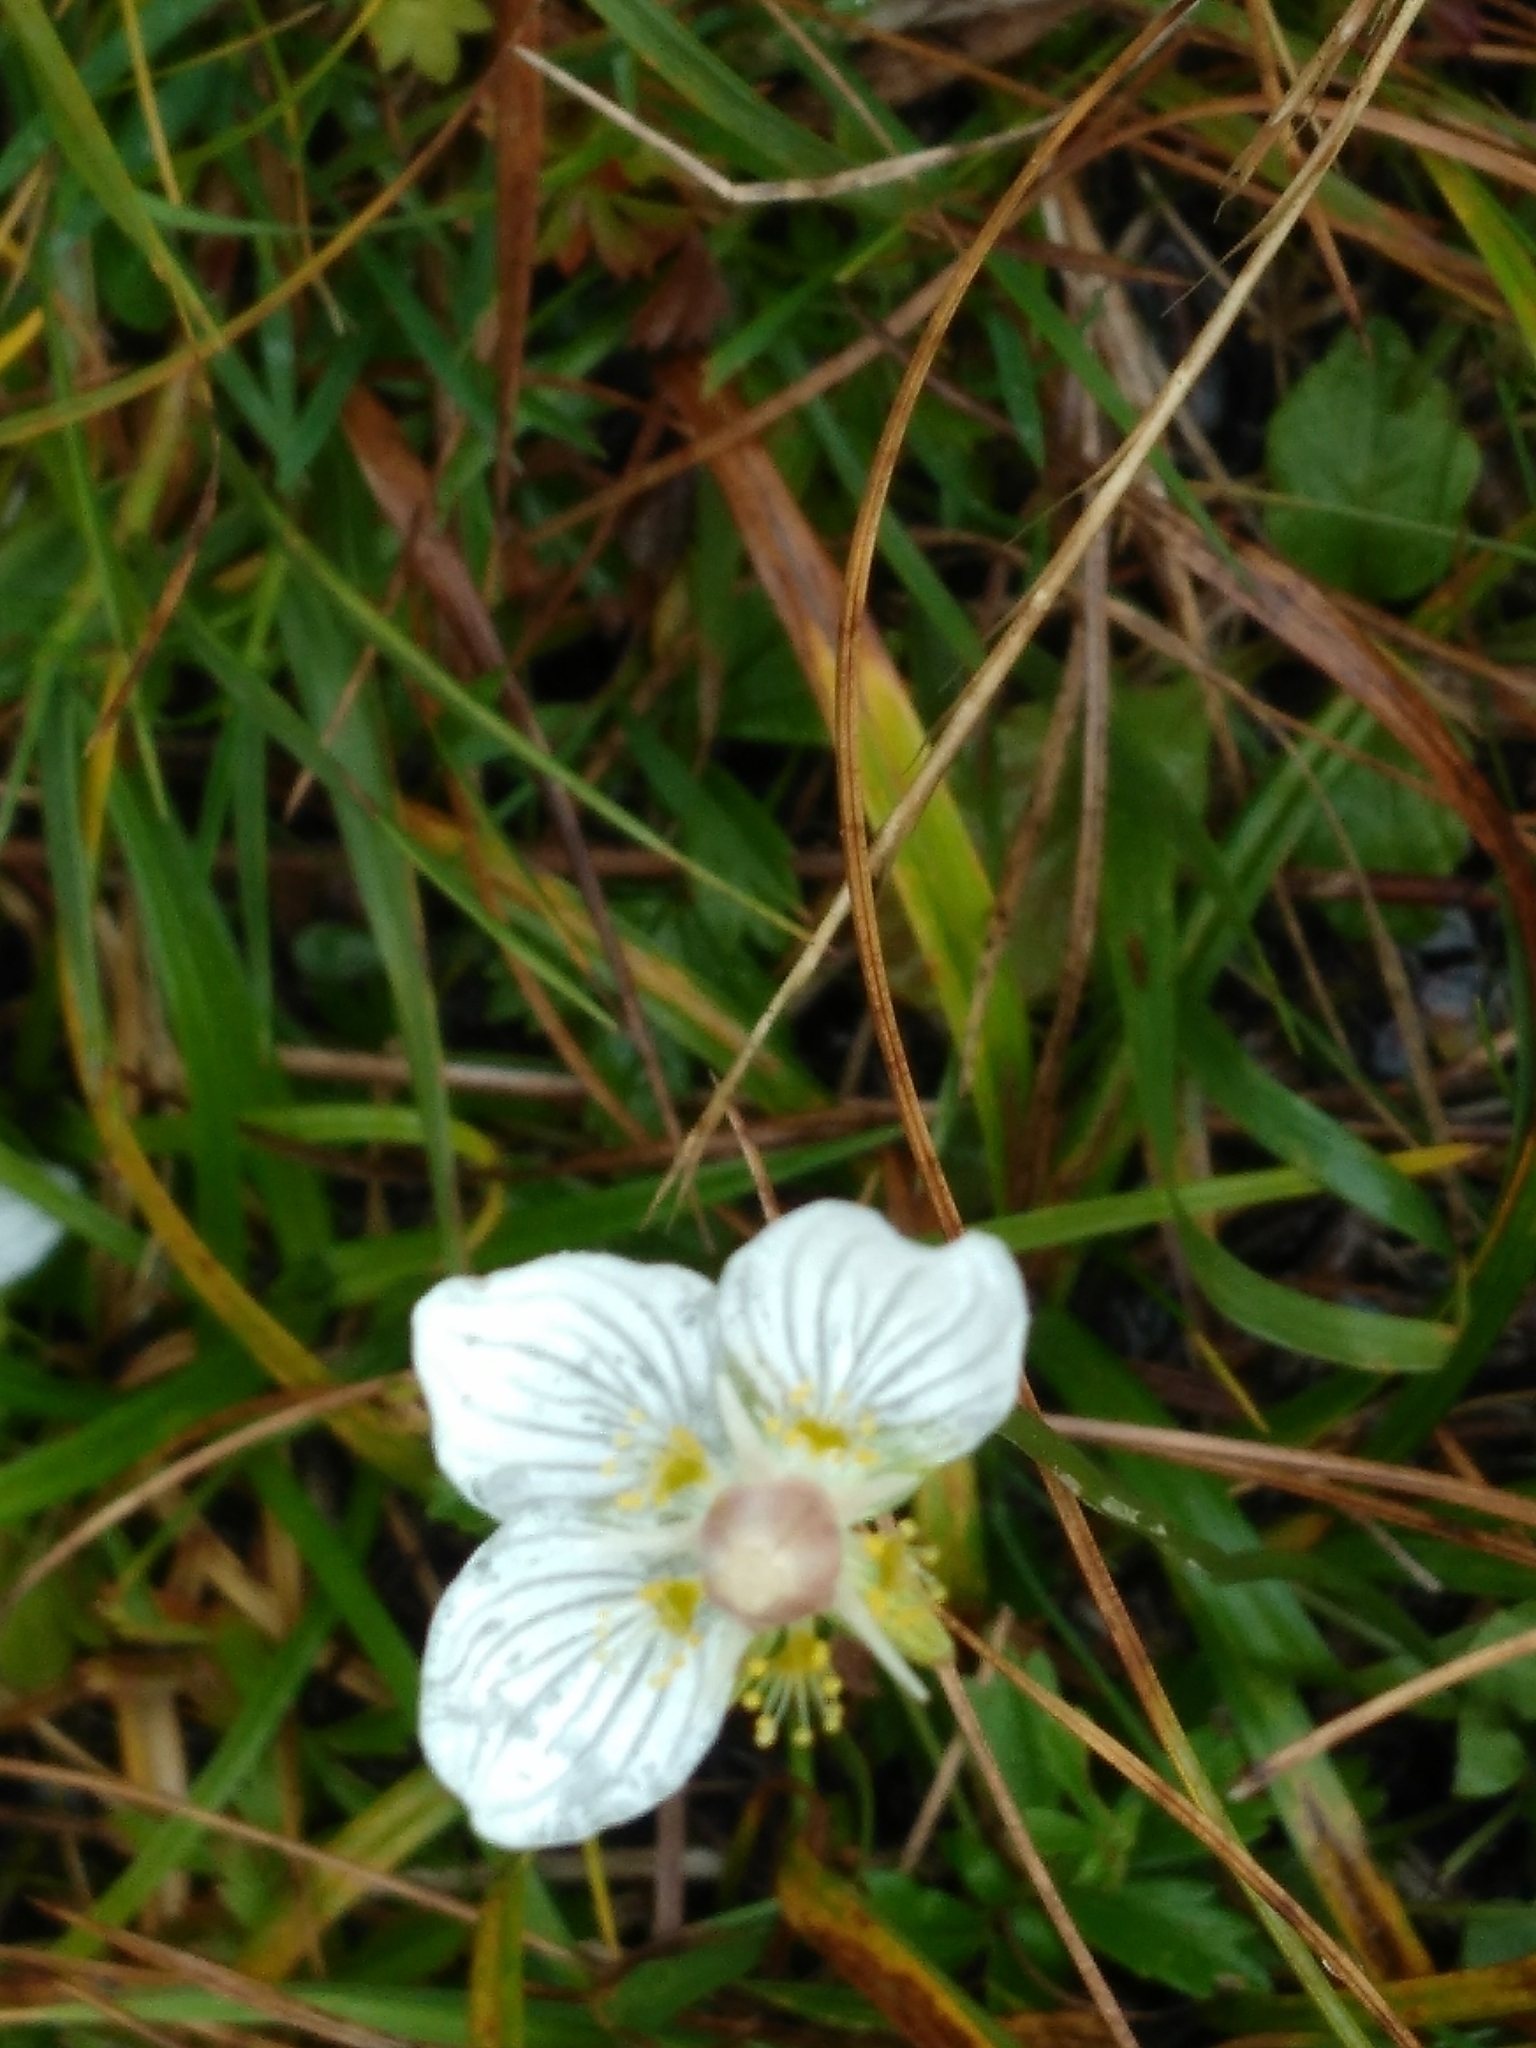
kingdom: Plantae
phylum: Tracheophyta
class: Magnoliopsida
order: Celastrales
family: Parnassiaceae
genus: Parnassia
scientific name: Parnassia palustris
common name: Grass-of-parnassus
